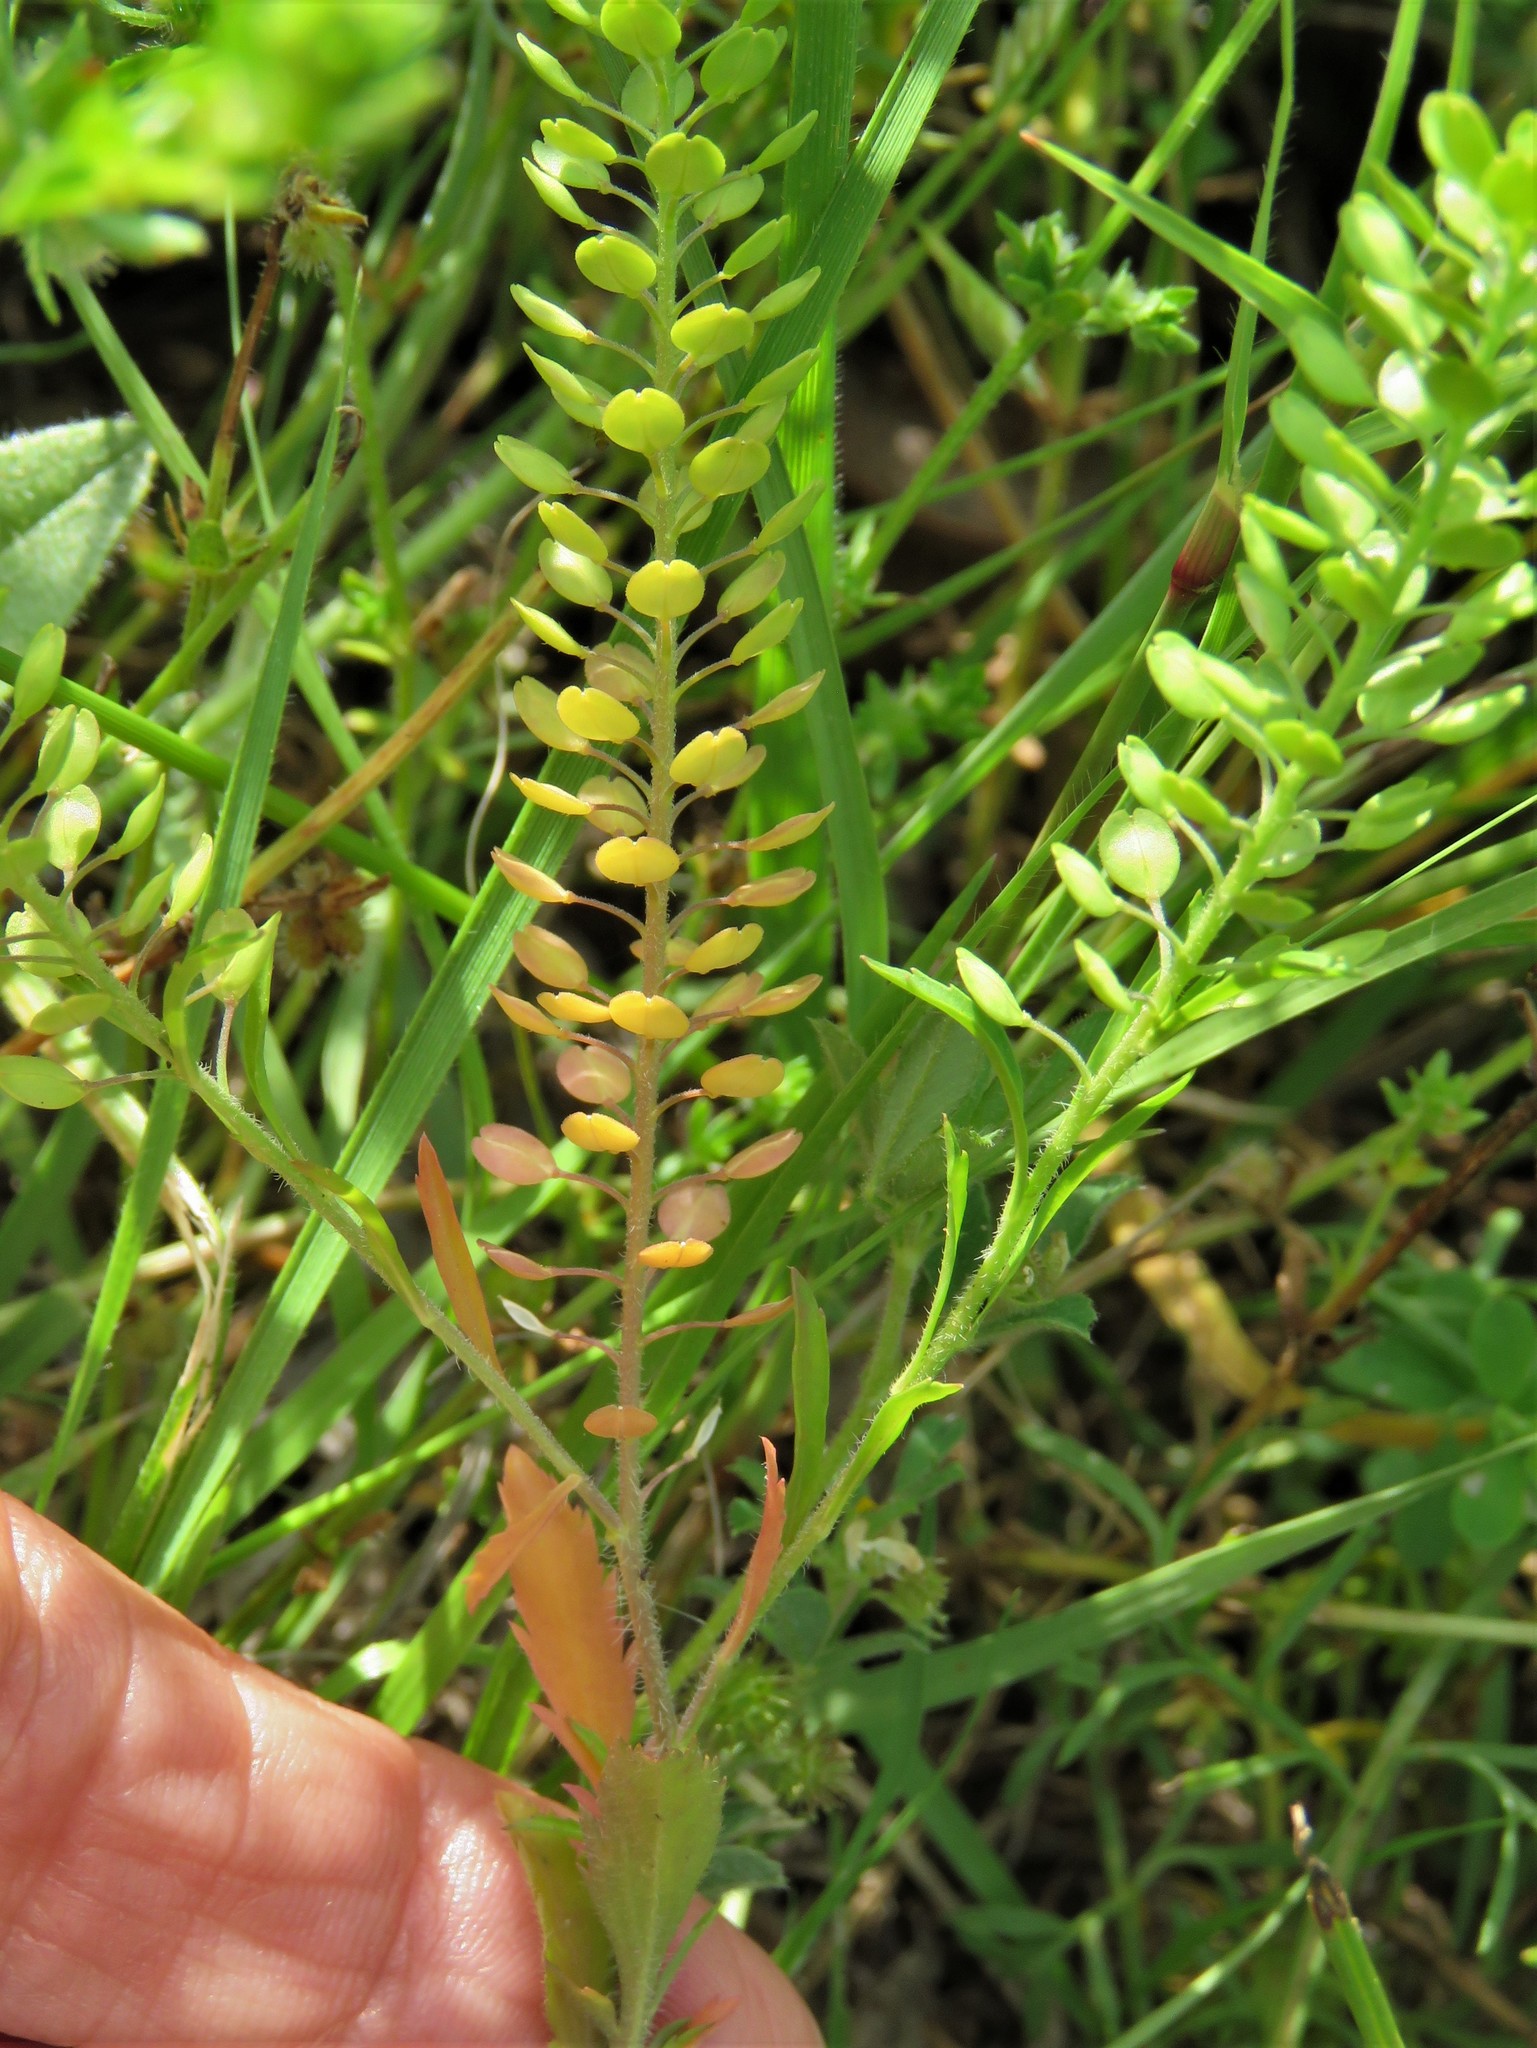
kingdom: Plantae
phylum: Tracheophyta
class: Magnoliopsida
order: Brassicales
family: Brassicaceae
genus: Lepidium
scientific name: Lepidium virginicum
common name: Least pepperwort
